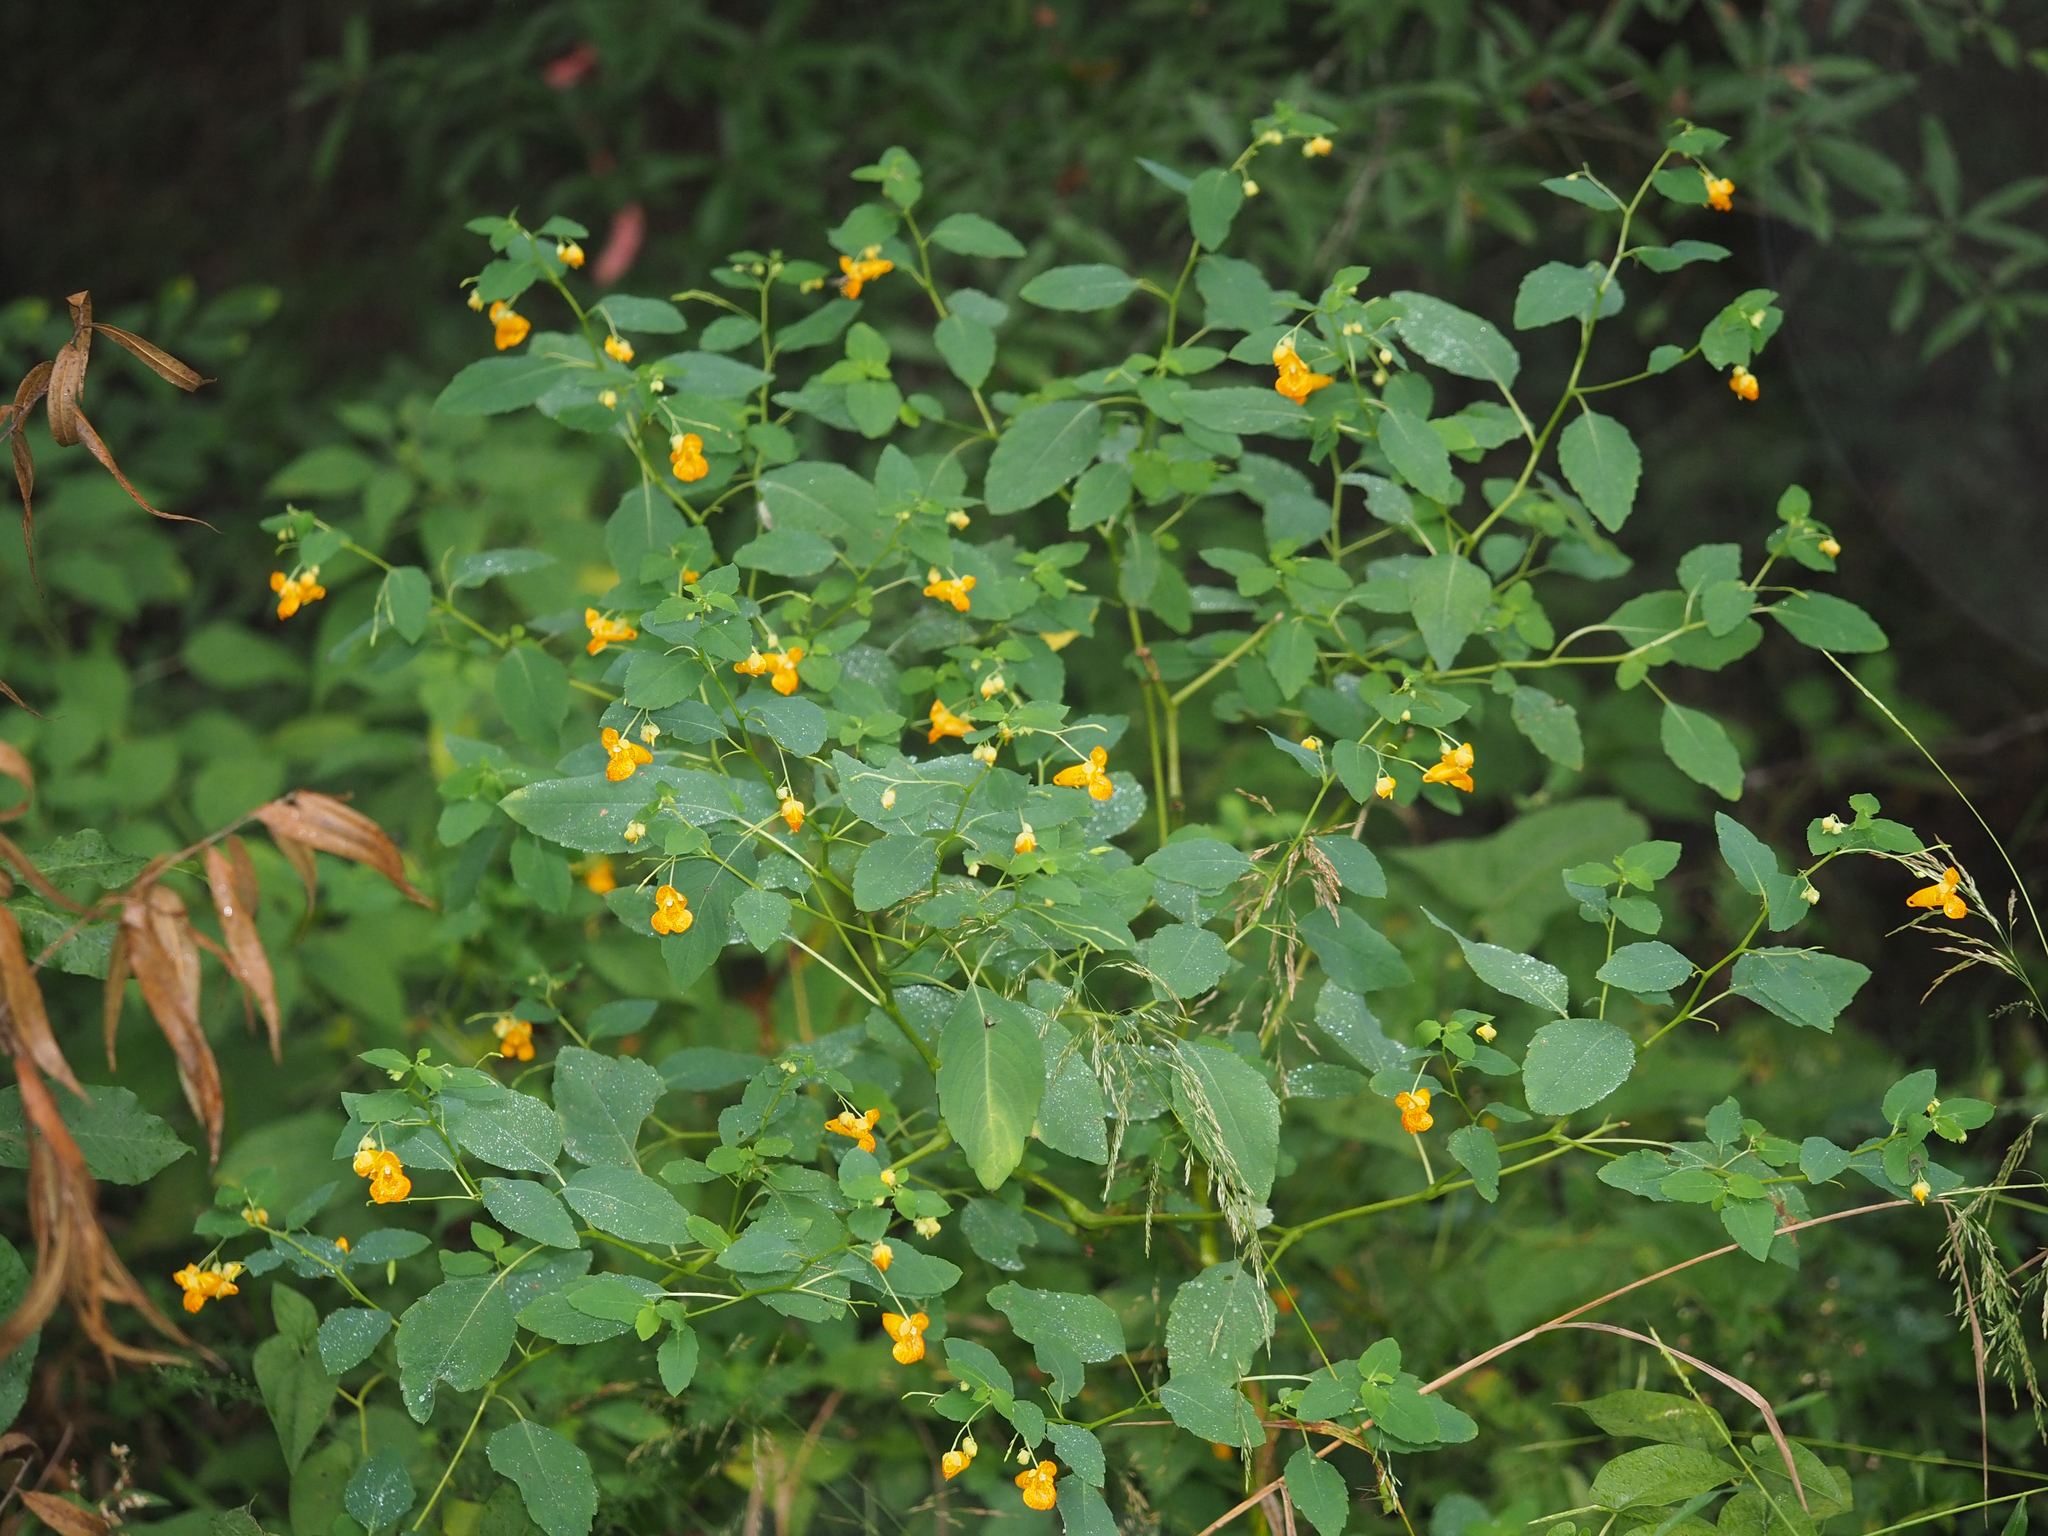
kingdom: Plantae
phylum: Tracheophyta
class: Magnoliopsida
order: Ericales
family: Balsaminaceae
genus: Impatiens
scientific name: Impatiens capensis
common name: Orange balsam
